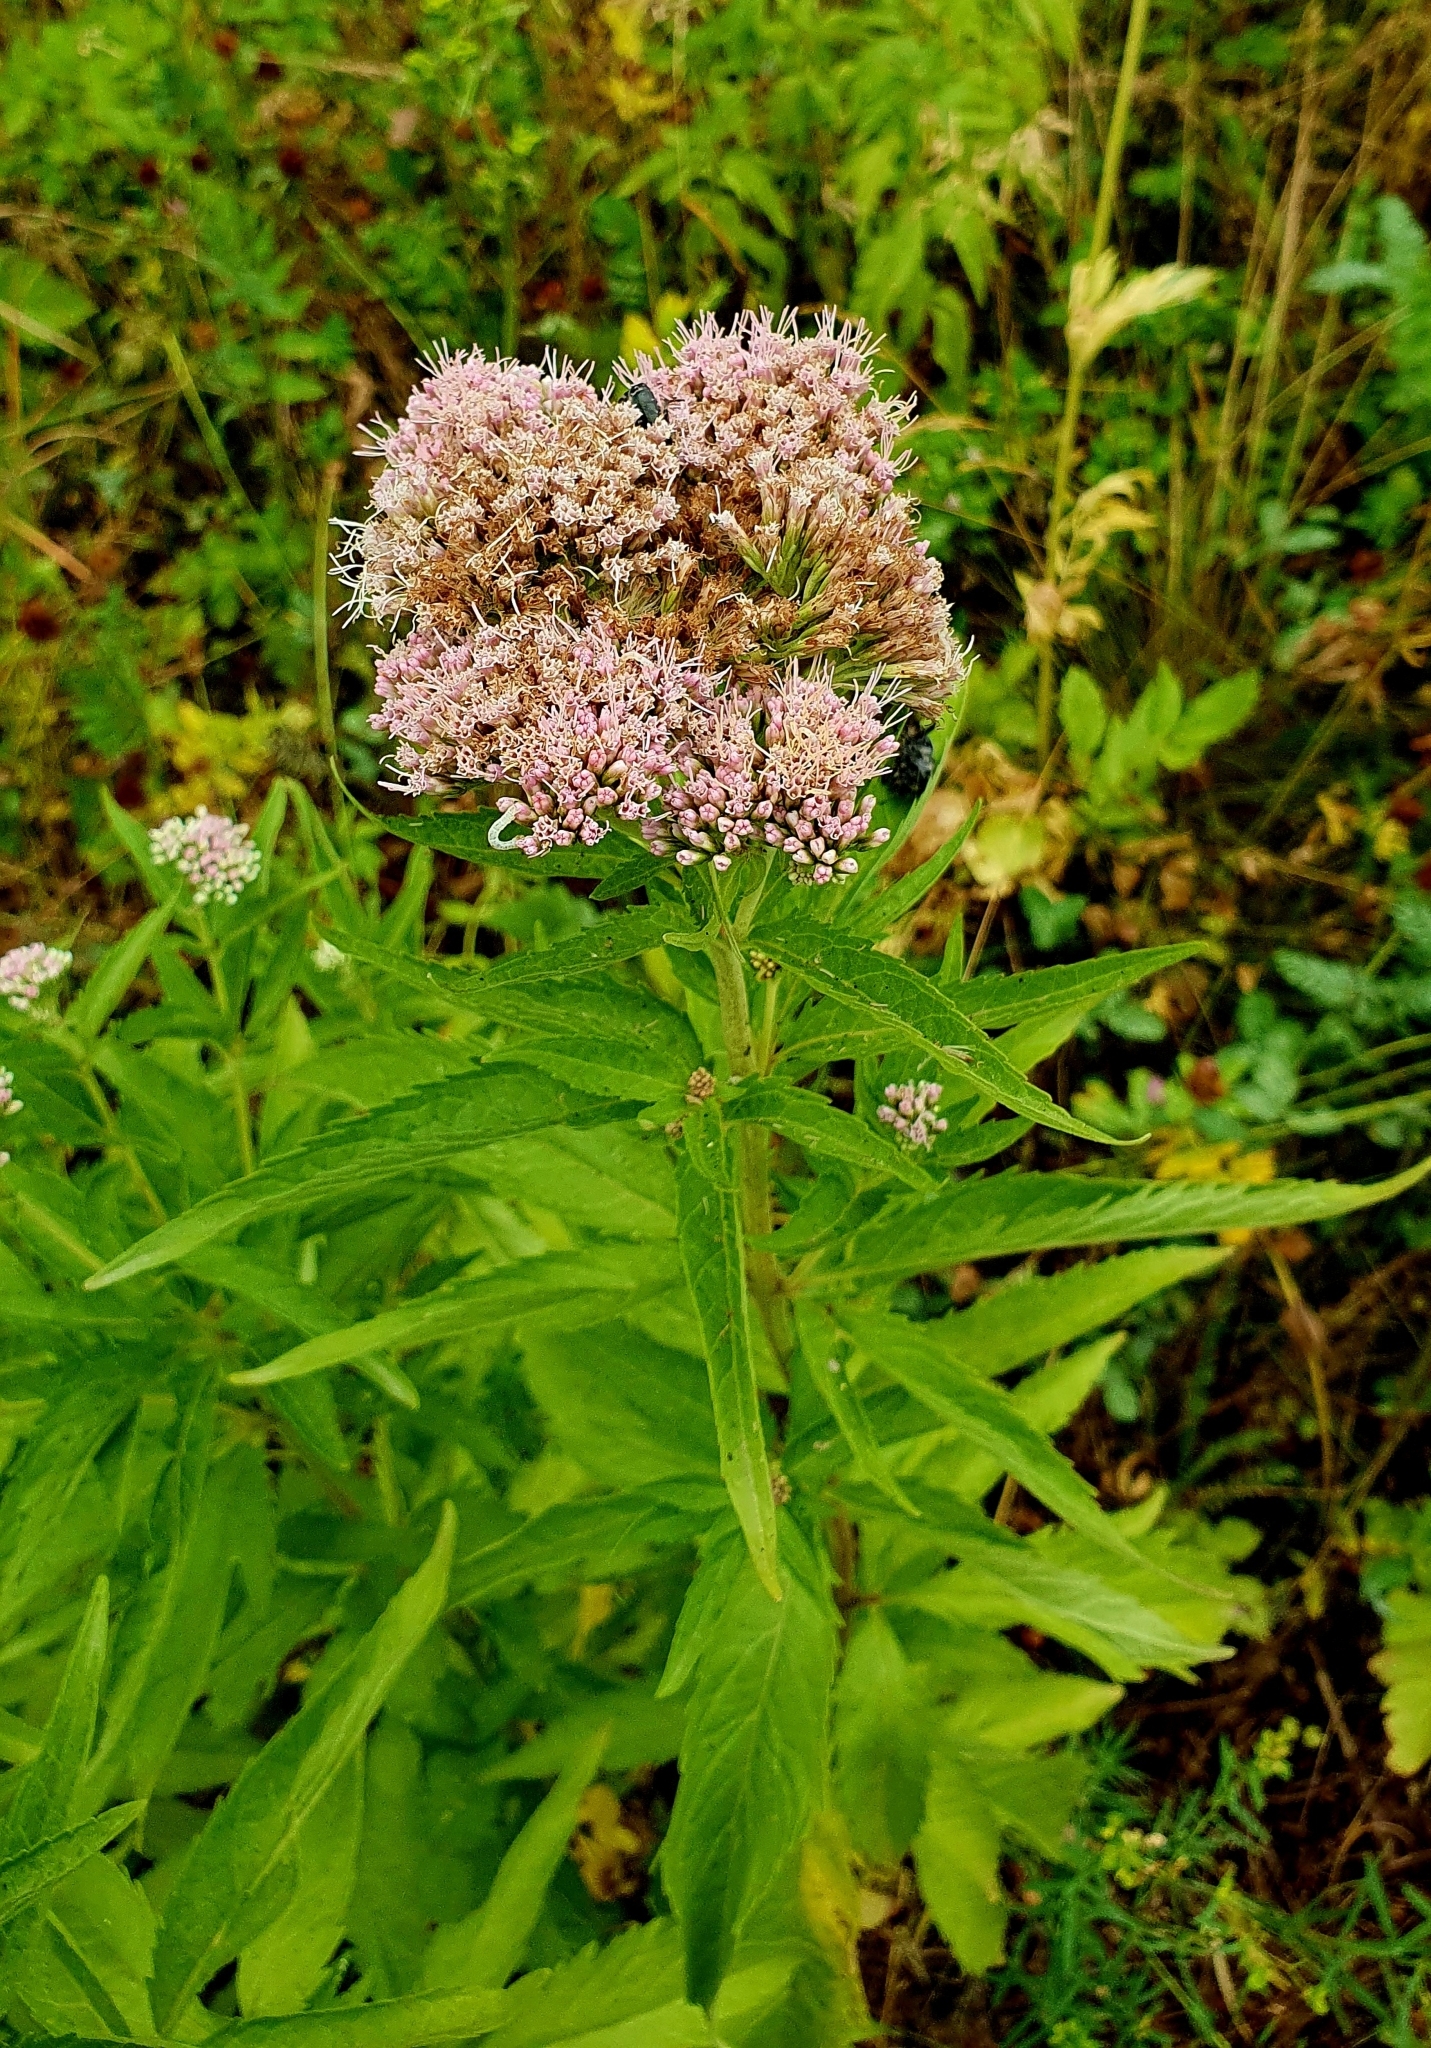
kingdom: Plantae
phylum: Tracheophyta
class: Magnoliopsida
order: Asterales
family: Asteraceae
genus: Eupatorium
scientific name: Eupatorium cannabinum
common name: Hemp-agrimony
